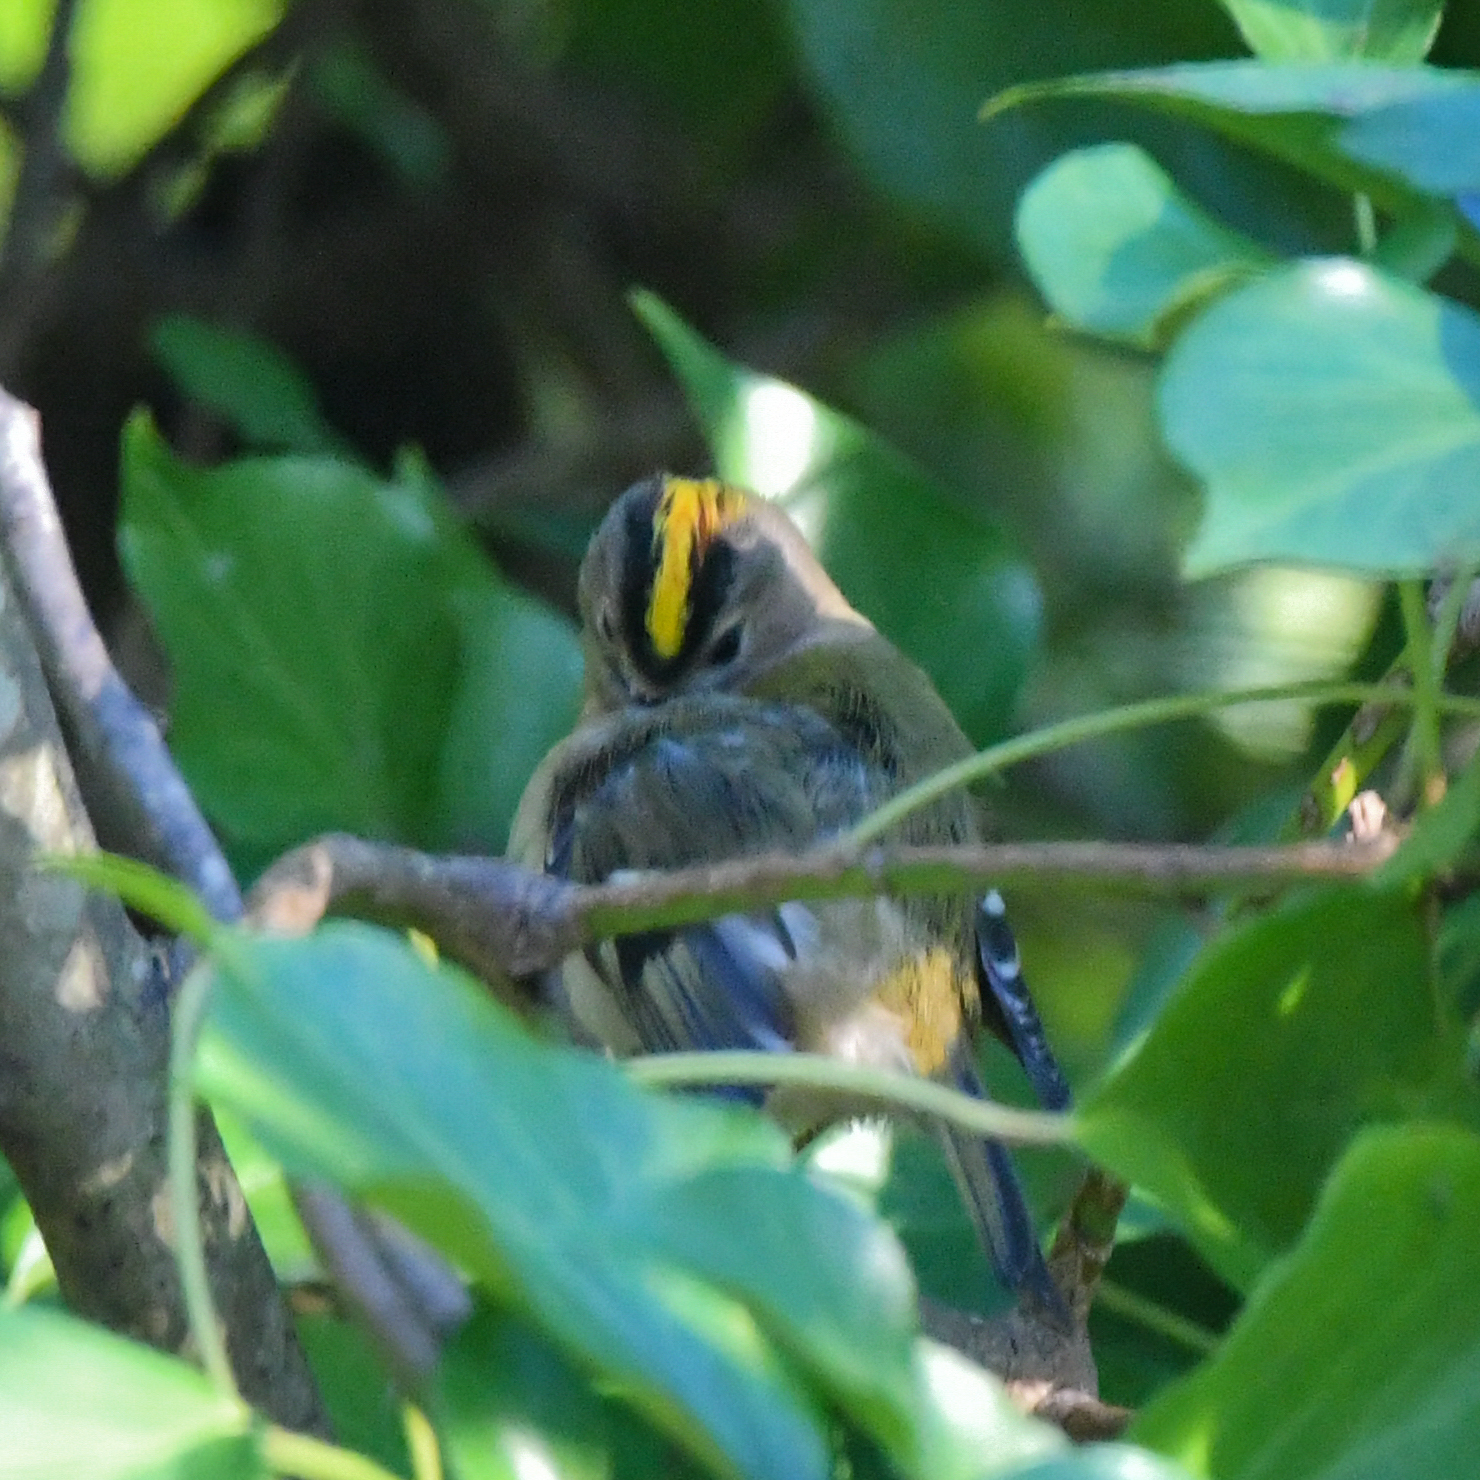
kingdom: Animalia
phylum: Chordata
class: Aves
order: Passeriformes
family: Regulidae
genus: Regulus
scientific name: Regulus regulus
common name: Goldcrest
